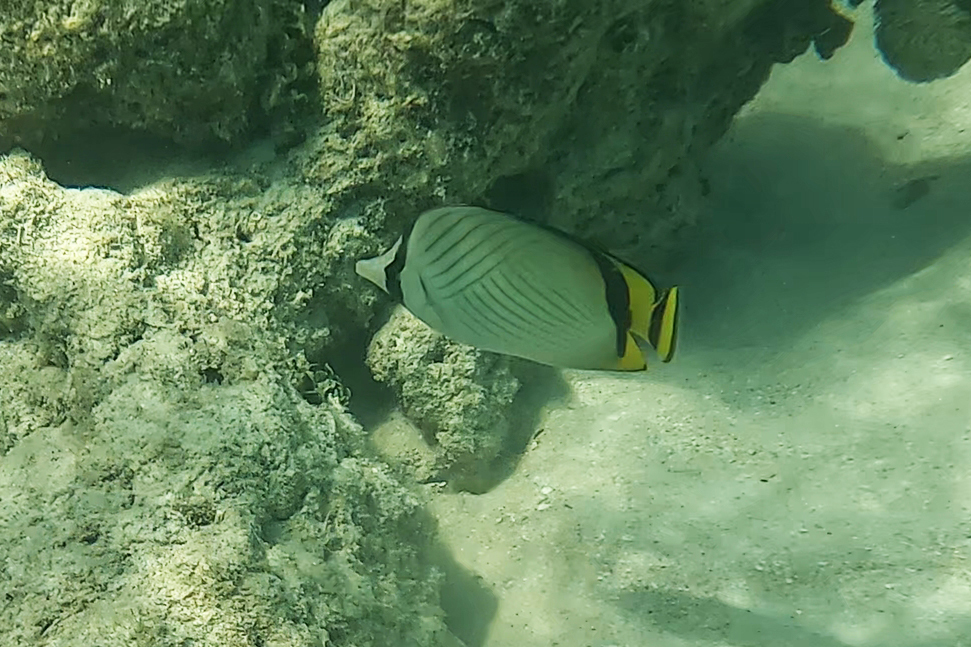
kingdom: Animalia
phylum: Chordata
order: Perciformes
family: Chaetodontidae
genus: Chaetodon
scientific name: Chaetodon vagabundus
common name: Vagabond butterflyfish
